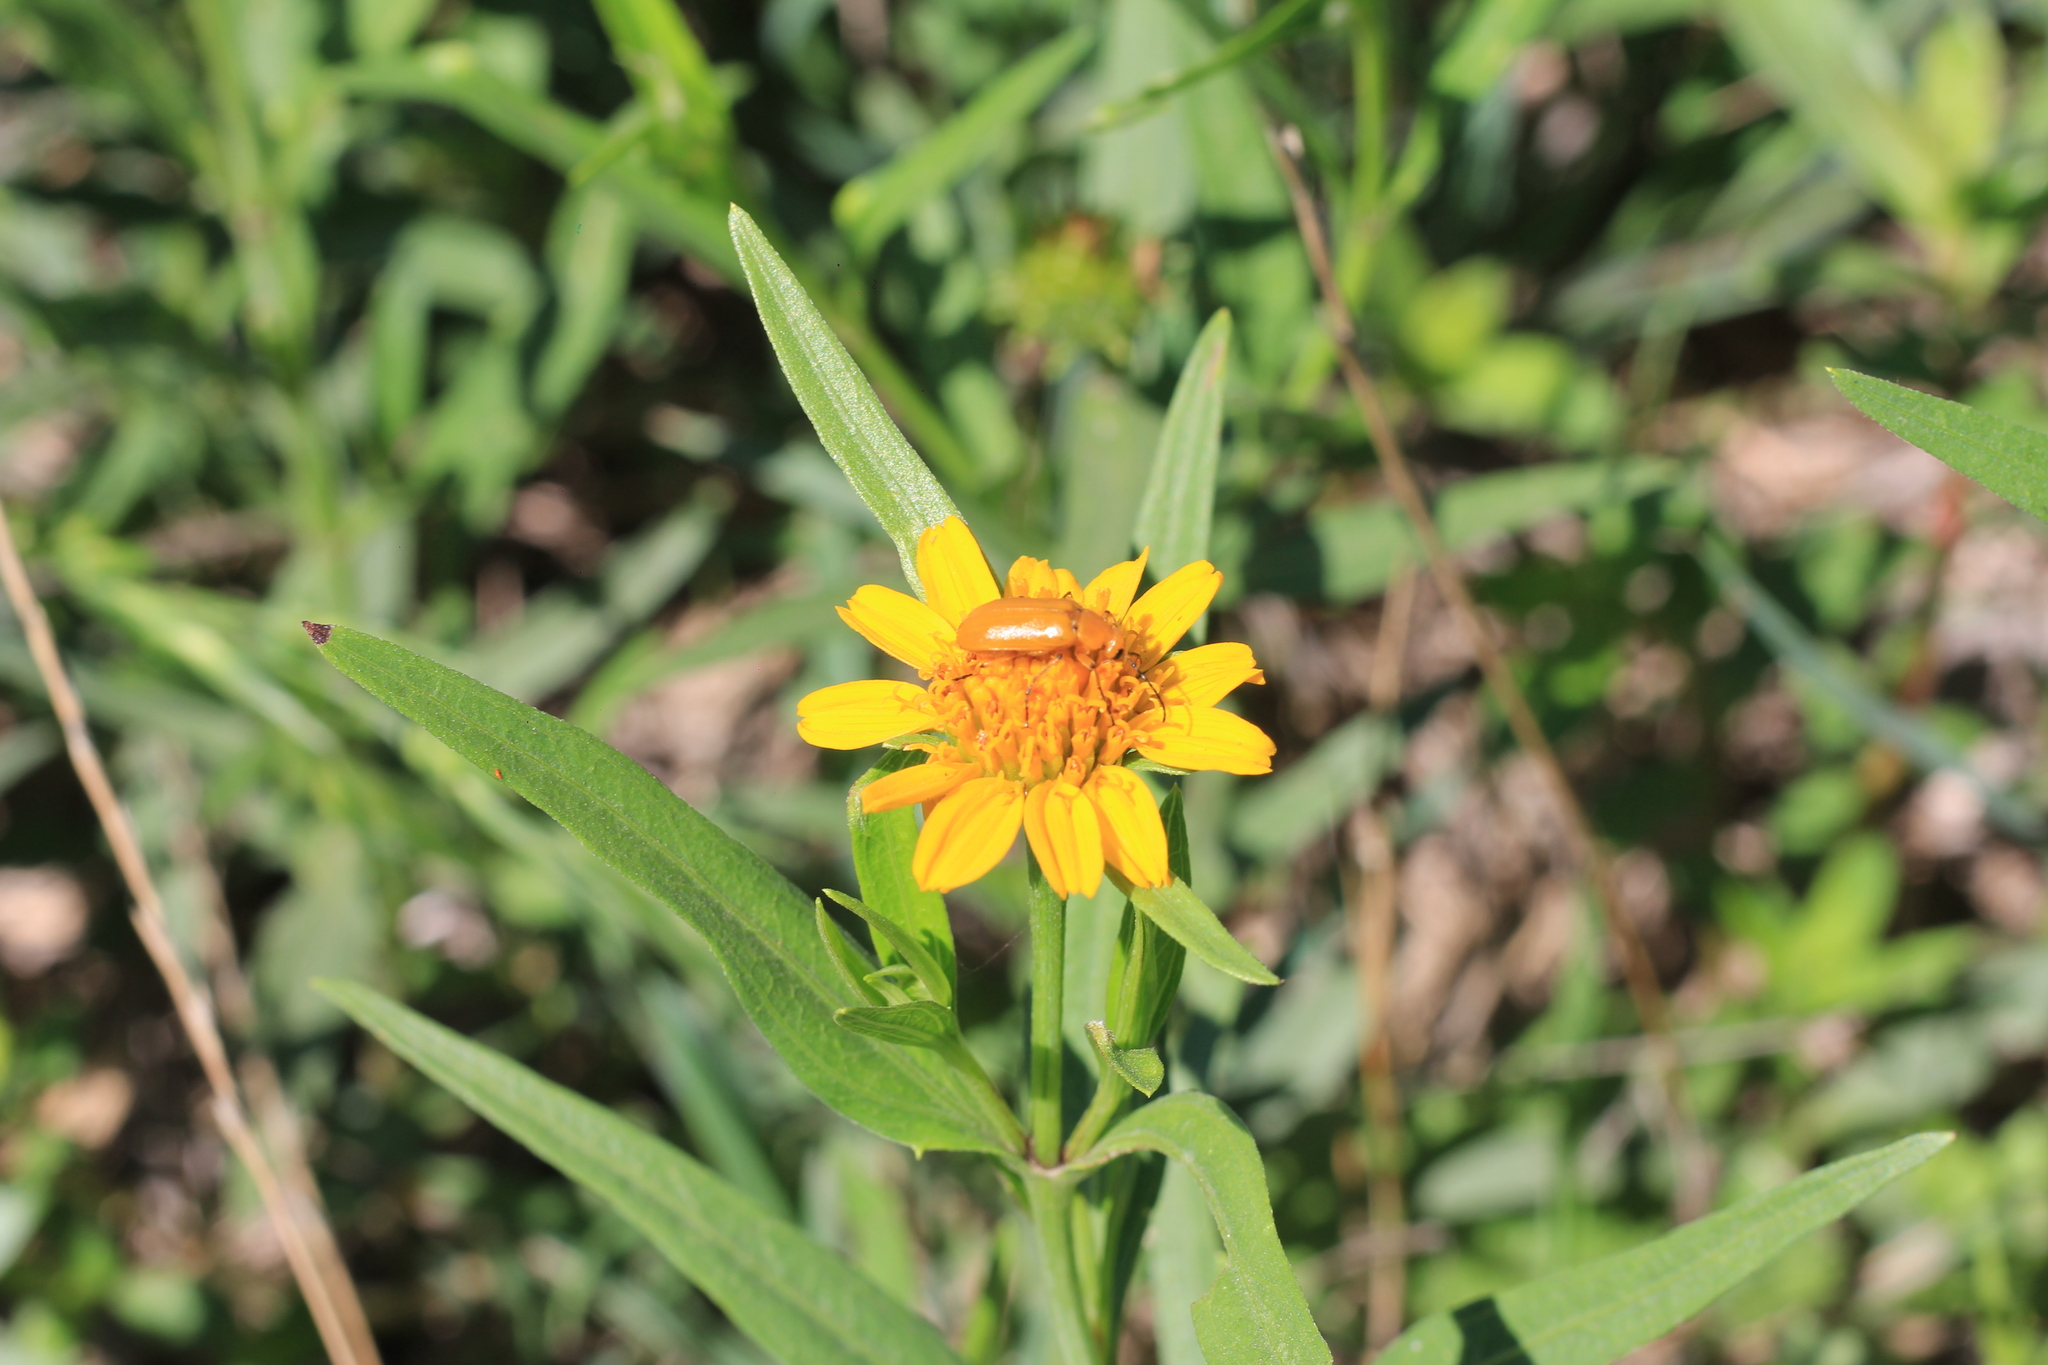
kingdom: Plantae
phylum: Tracheophyta
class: Magnoliopsida
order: Asterales
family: Asteraceae
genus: Pascalia
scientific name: Pascalia glauca
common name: Beach creeping oxeye
